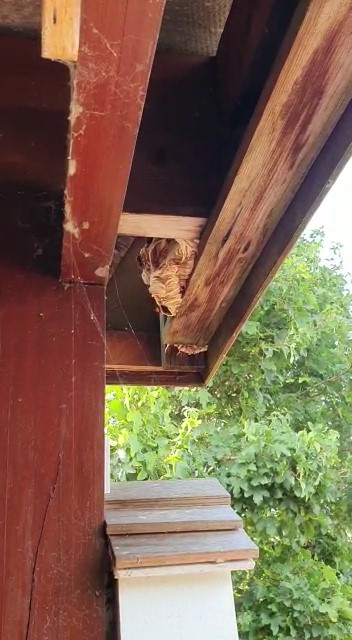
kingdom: Animalia
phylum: Arthropoda
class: Insecta
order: Hymenoptera
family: Vespidae
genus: Vespa
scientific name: Vespa crabro
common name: Hornet
